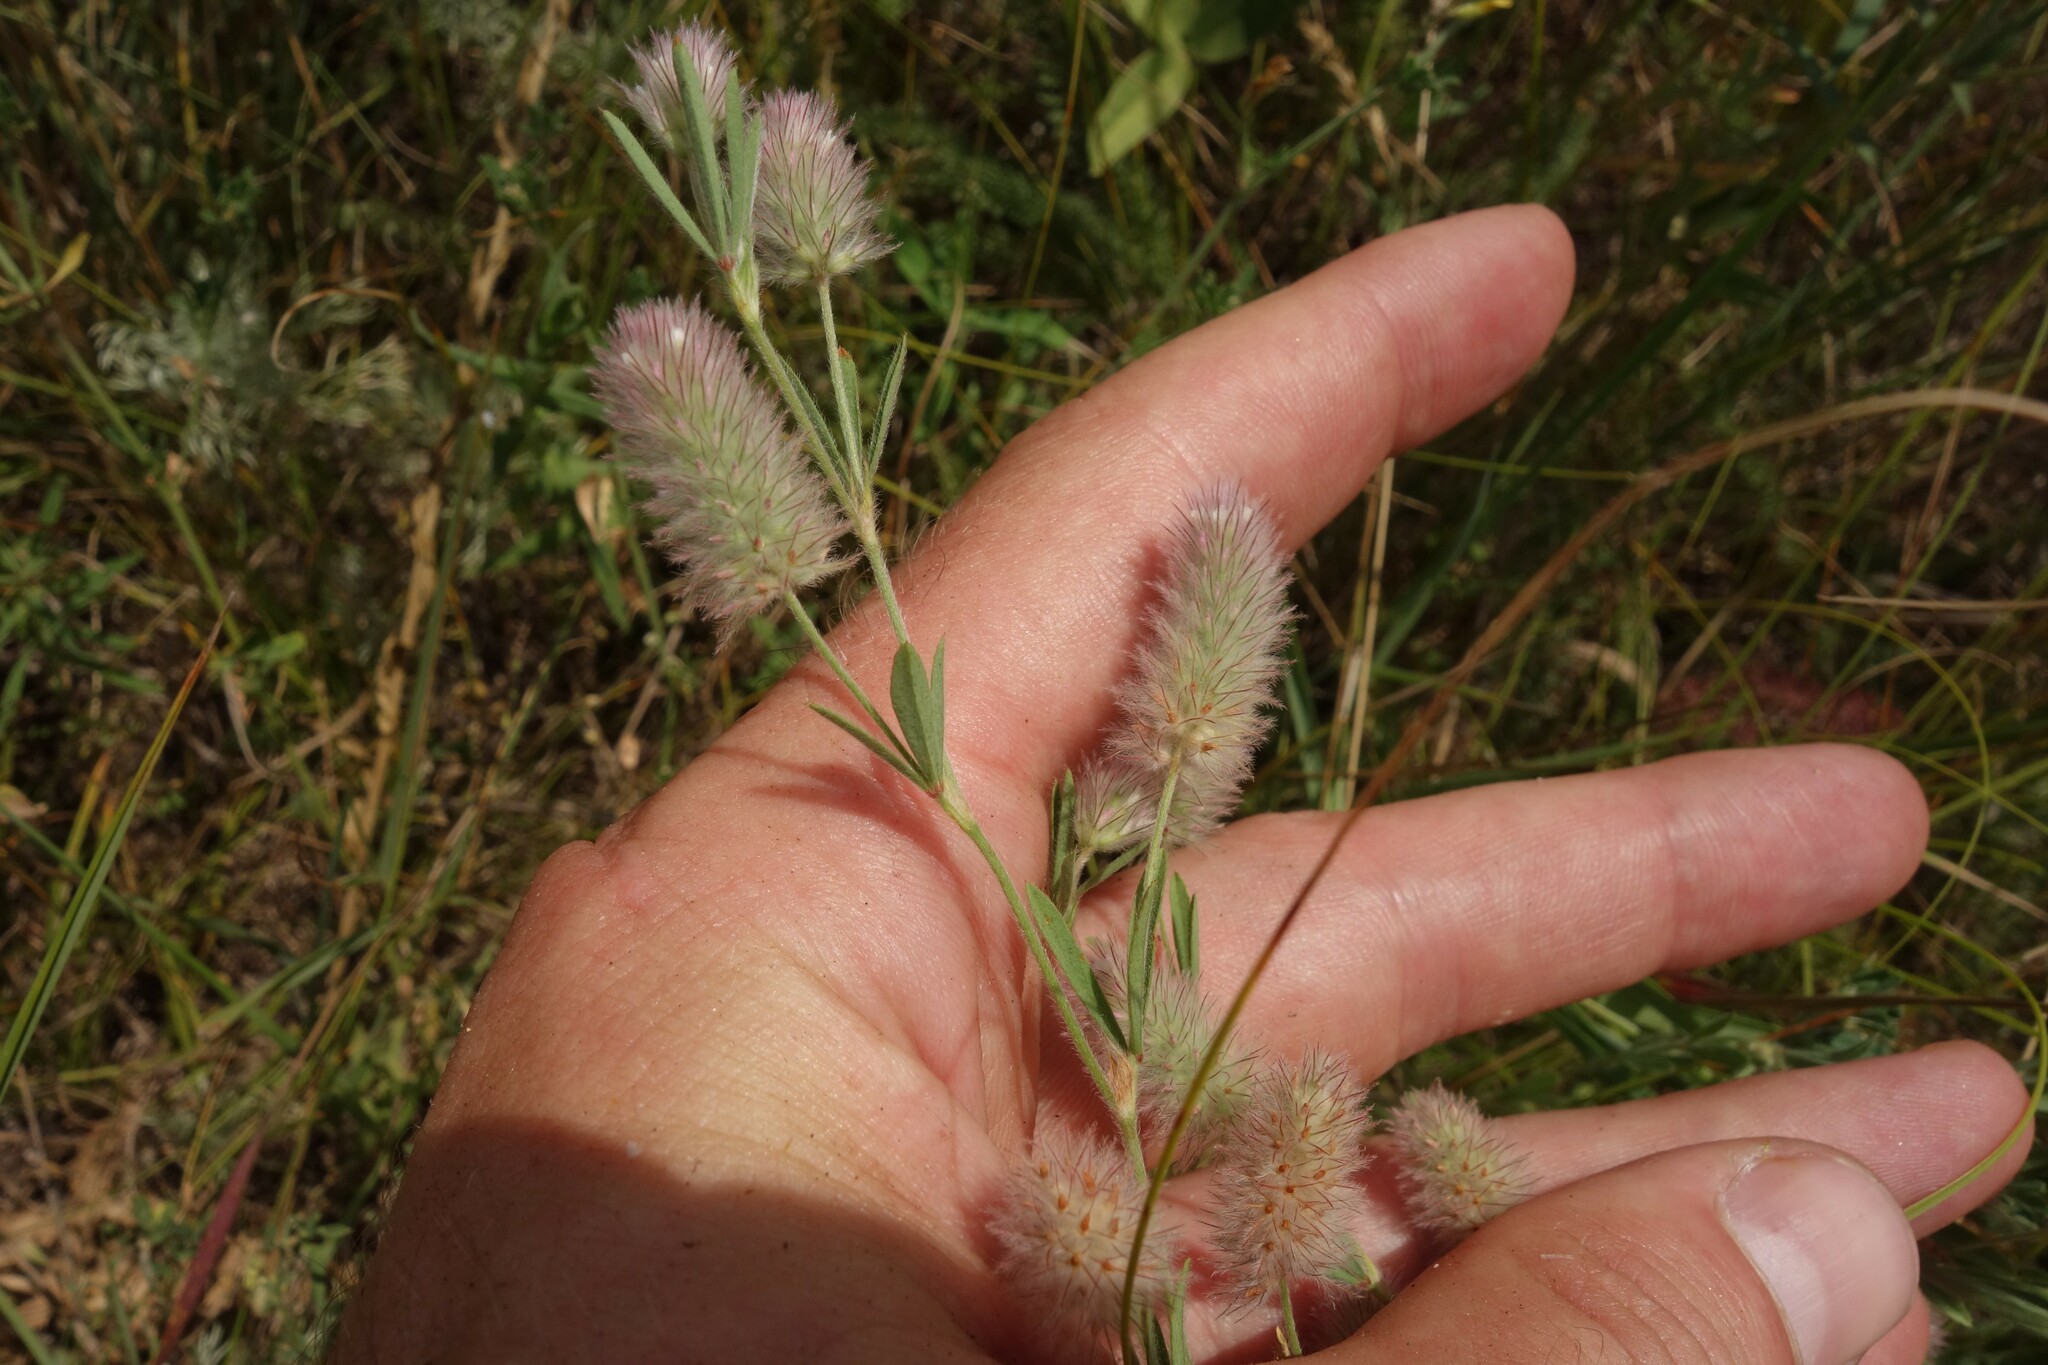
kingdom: Plantae
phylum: Tracheophyta
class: Magnoliopsida
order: Fabales
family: Fabaceae
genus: Trifolium
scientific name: Trifolium arvense
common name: Hare's-foot clover
